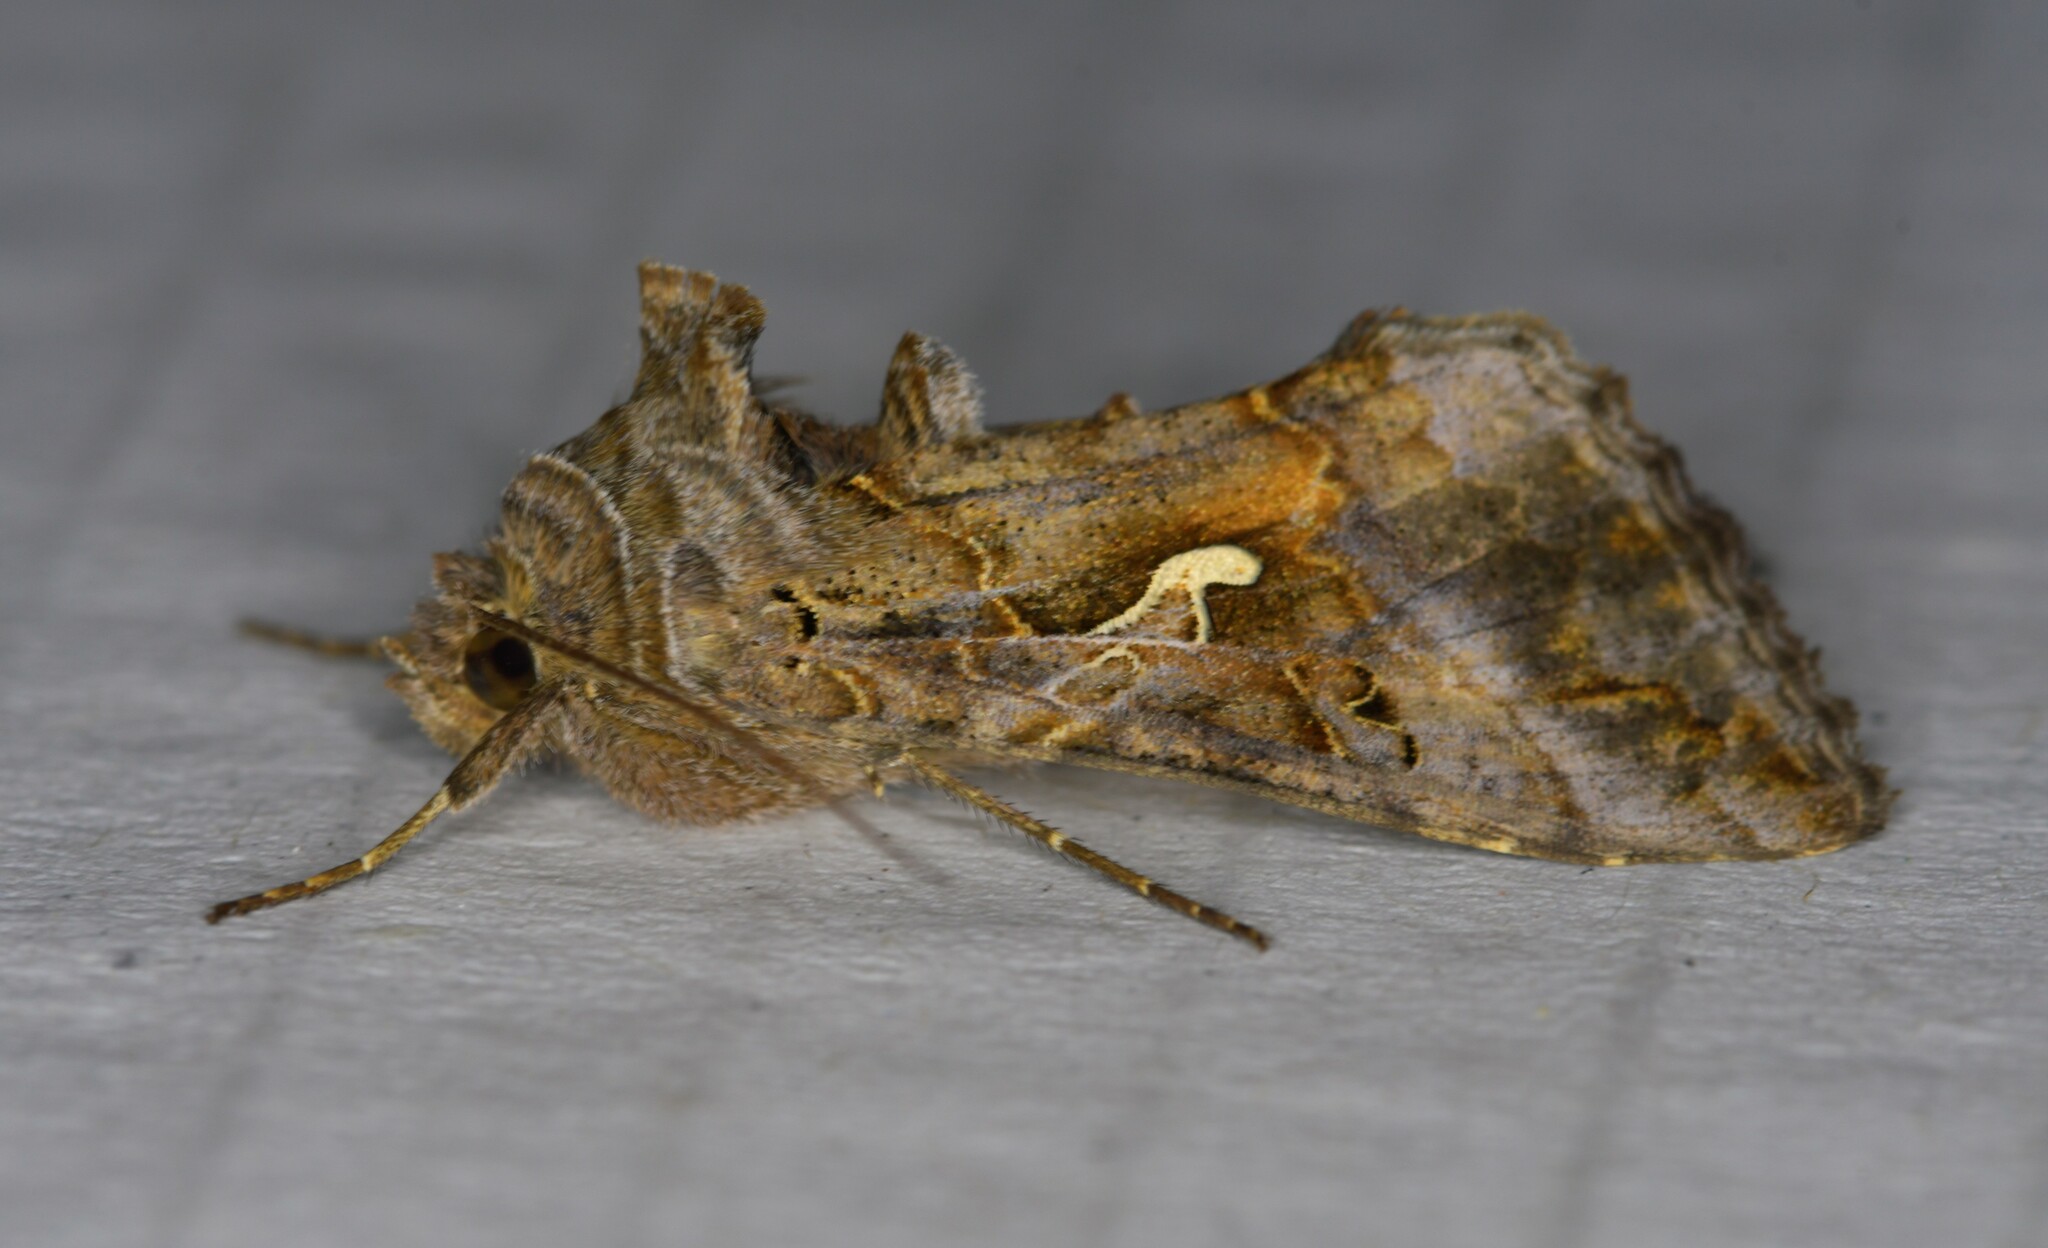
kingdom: Animalia
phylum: Arthropoda
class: Insecta
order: Lepidoptera
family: Noctuidae
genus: Autographa
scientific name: Autographa gamma
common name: Silver y
